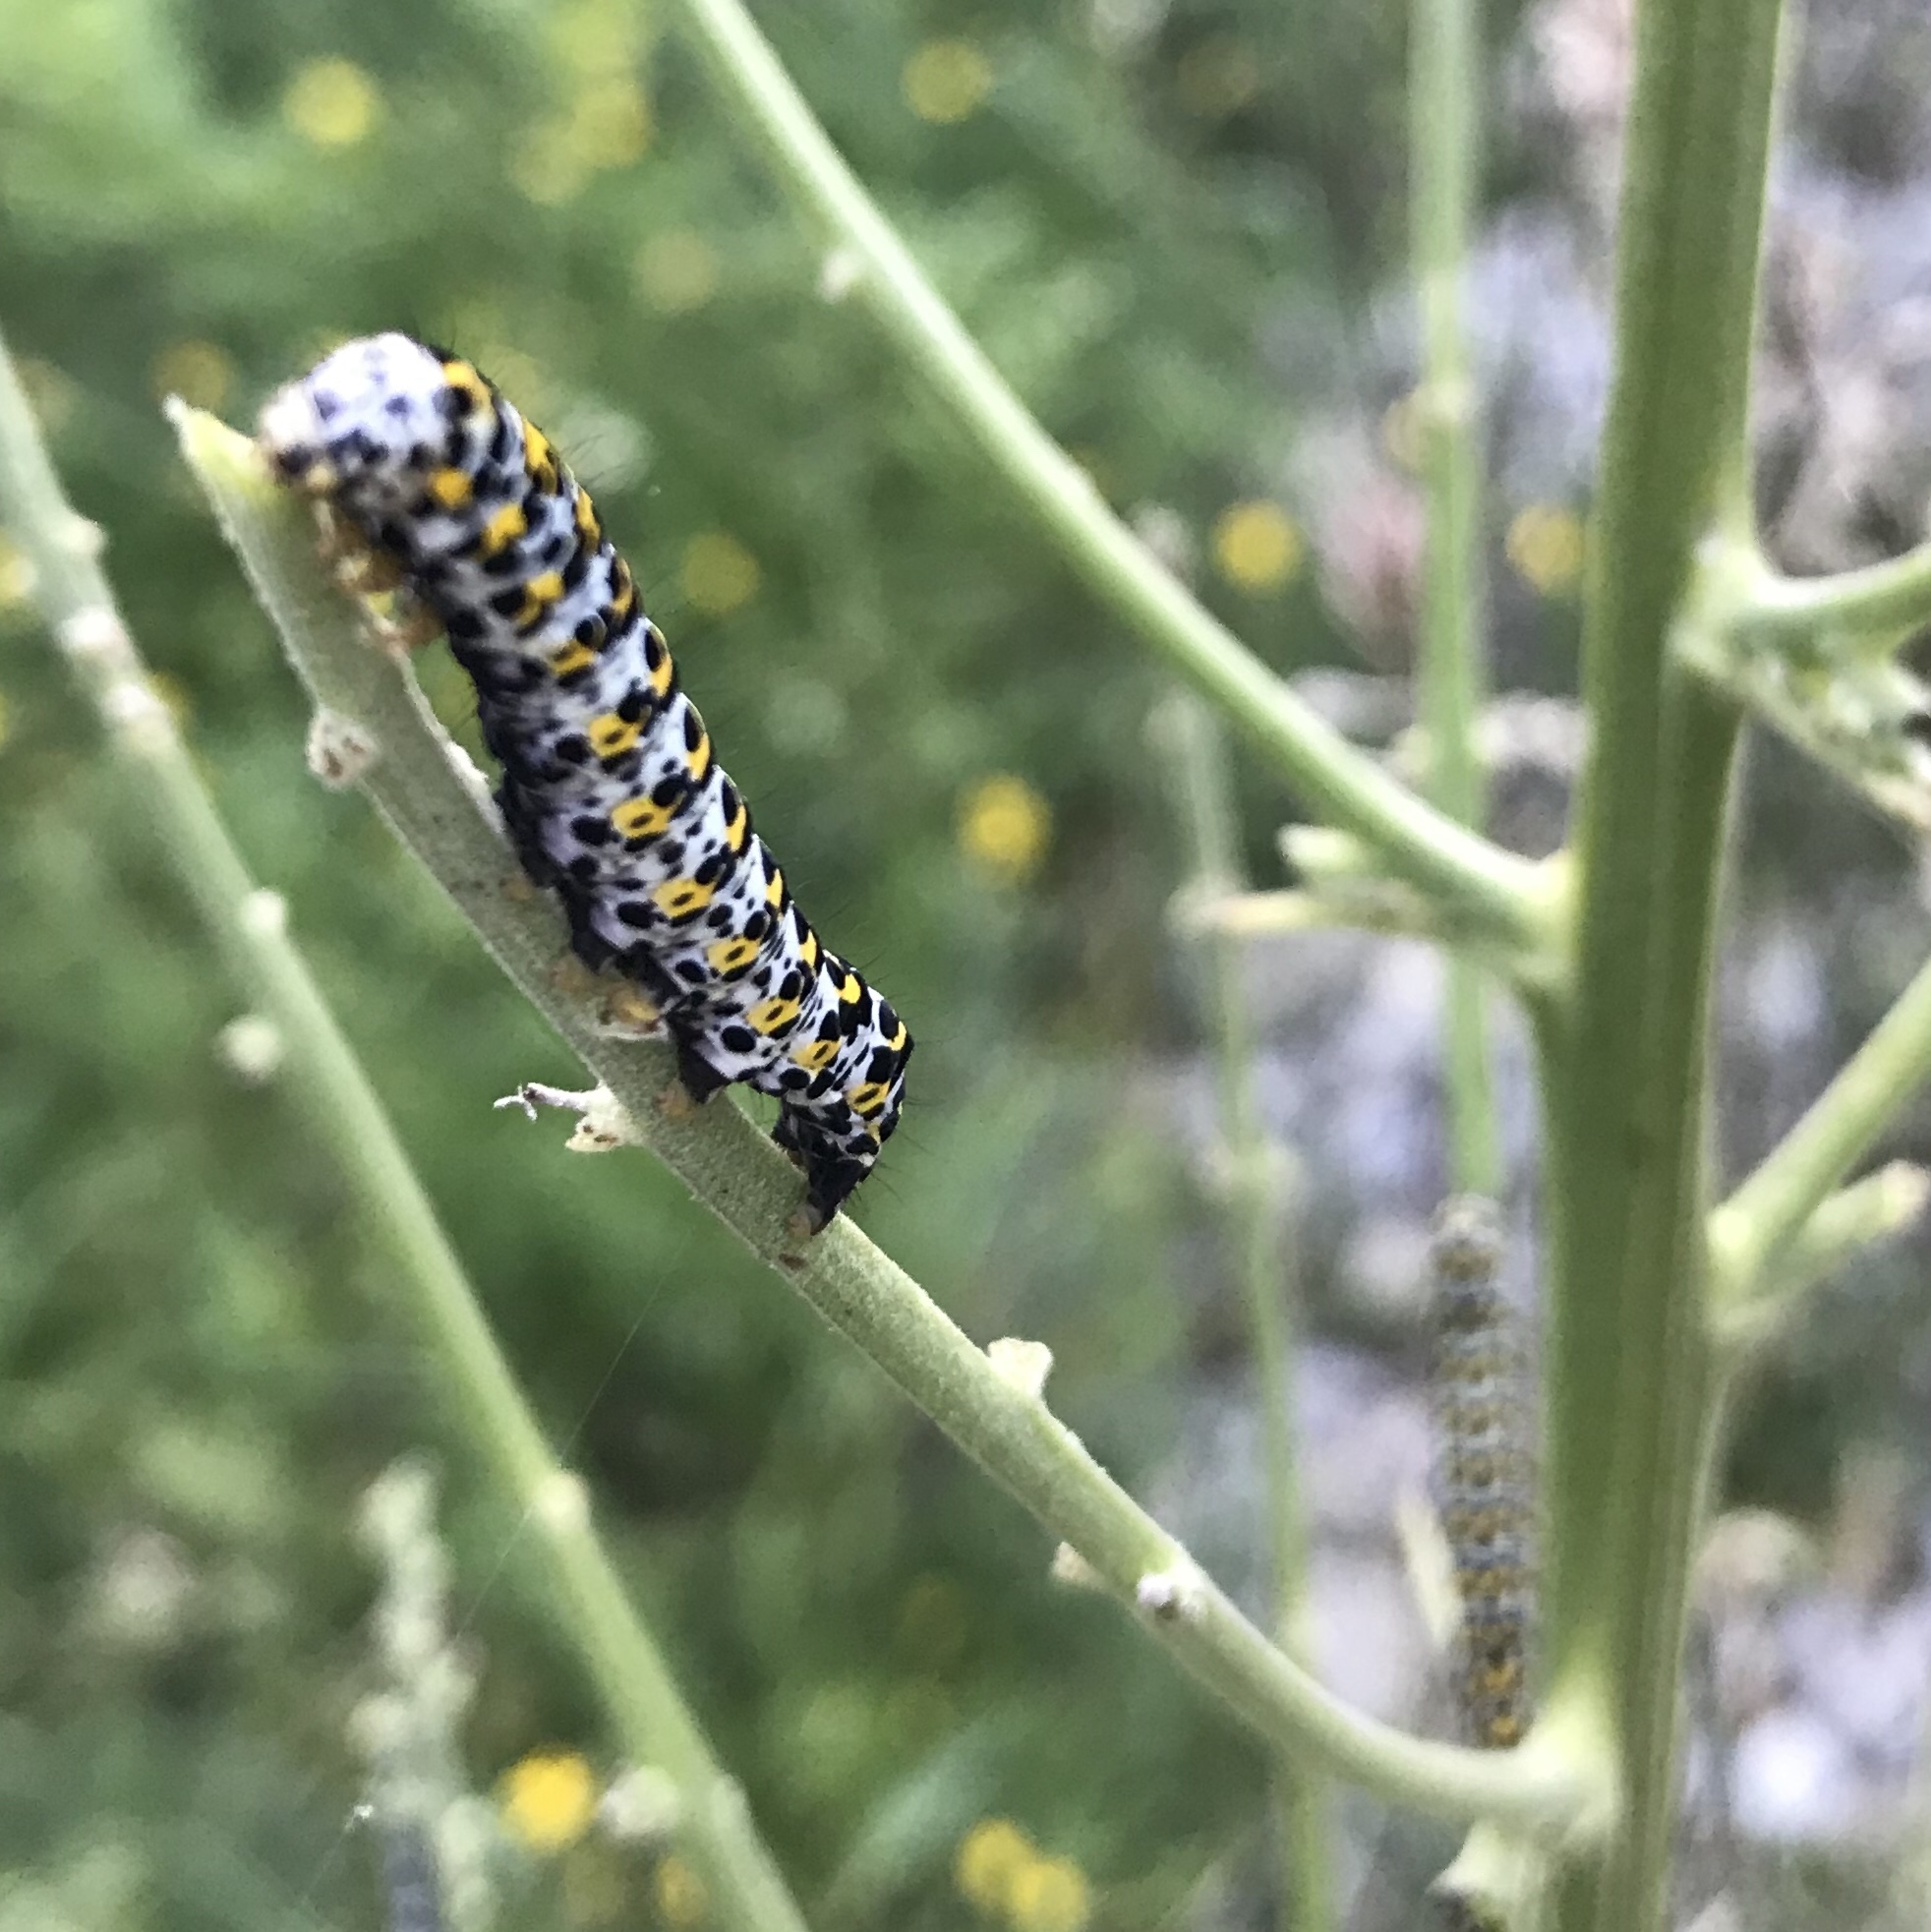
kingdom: Animalia
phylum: Arthropoda
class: Insecta
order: Lepidoptera
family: Noctuidae
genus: Cucullia
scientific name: Cucullia verbasci
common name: Mullein
